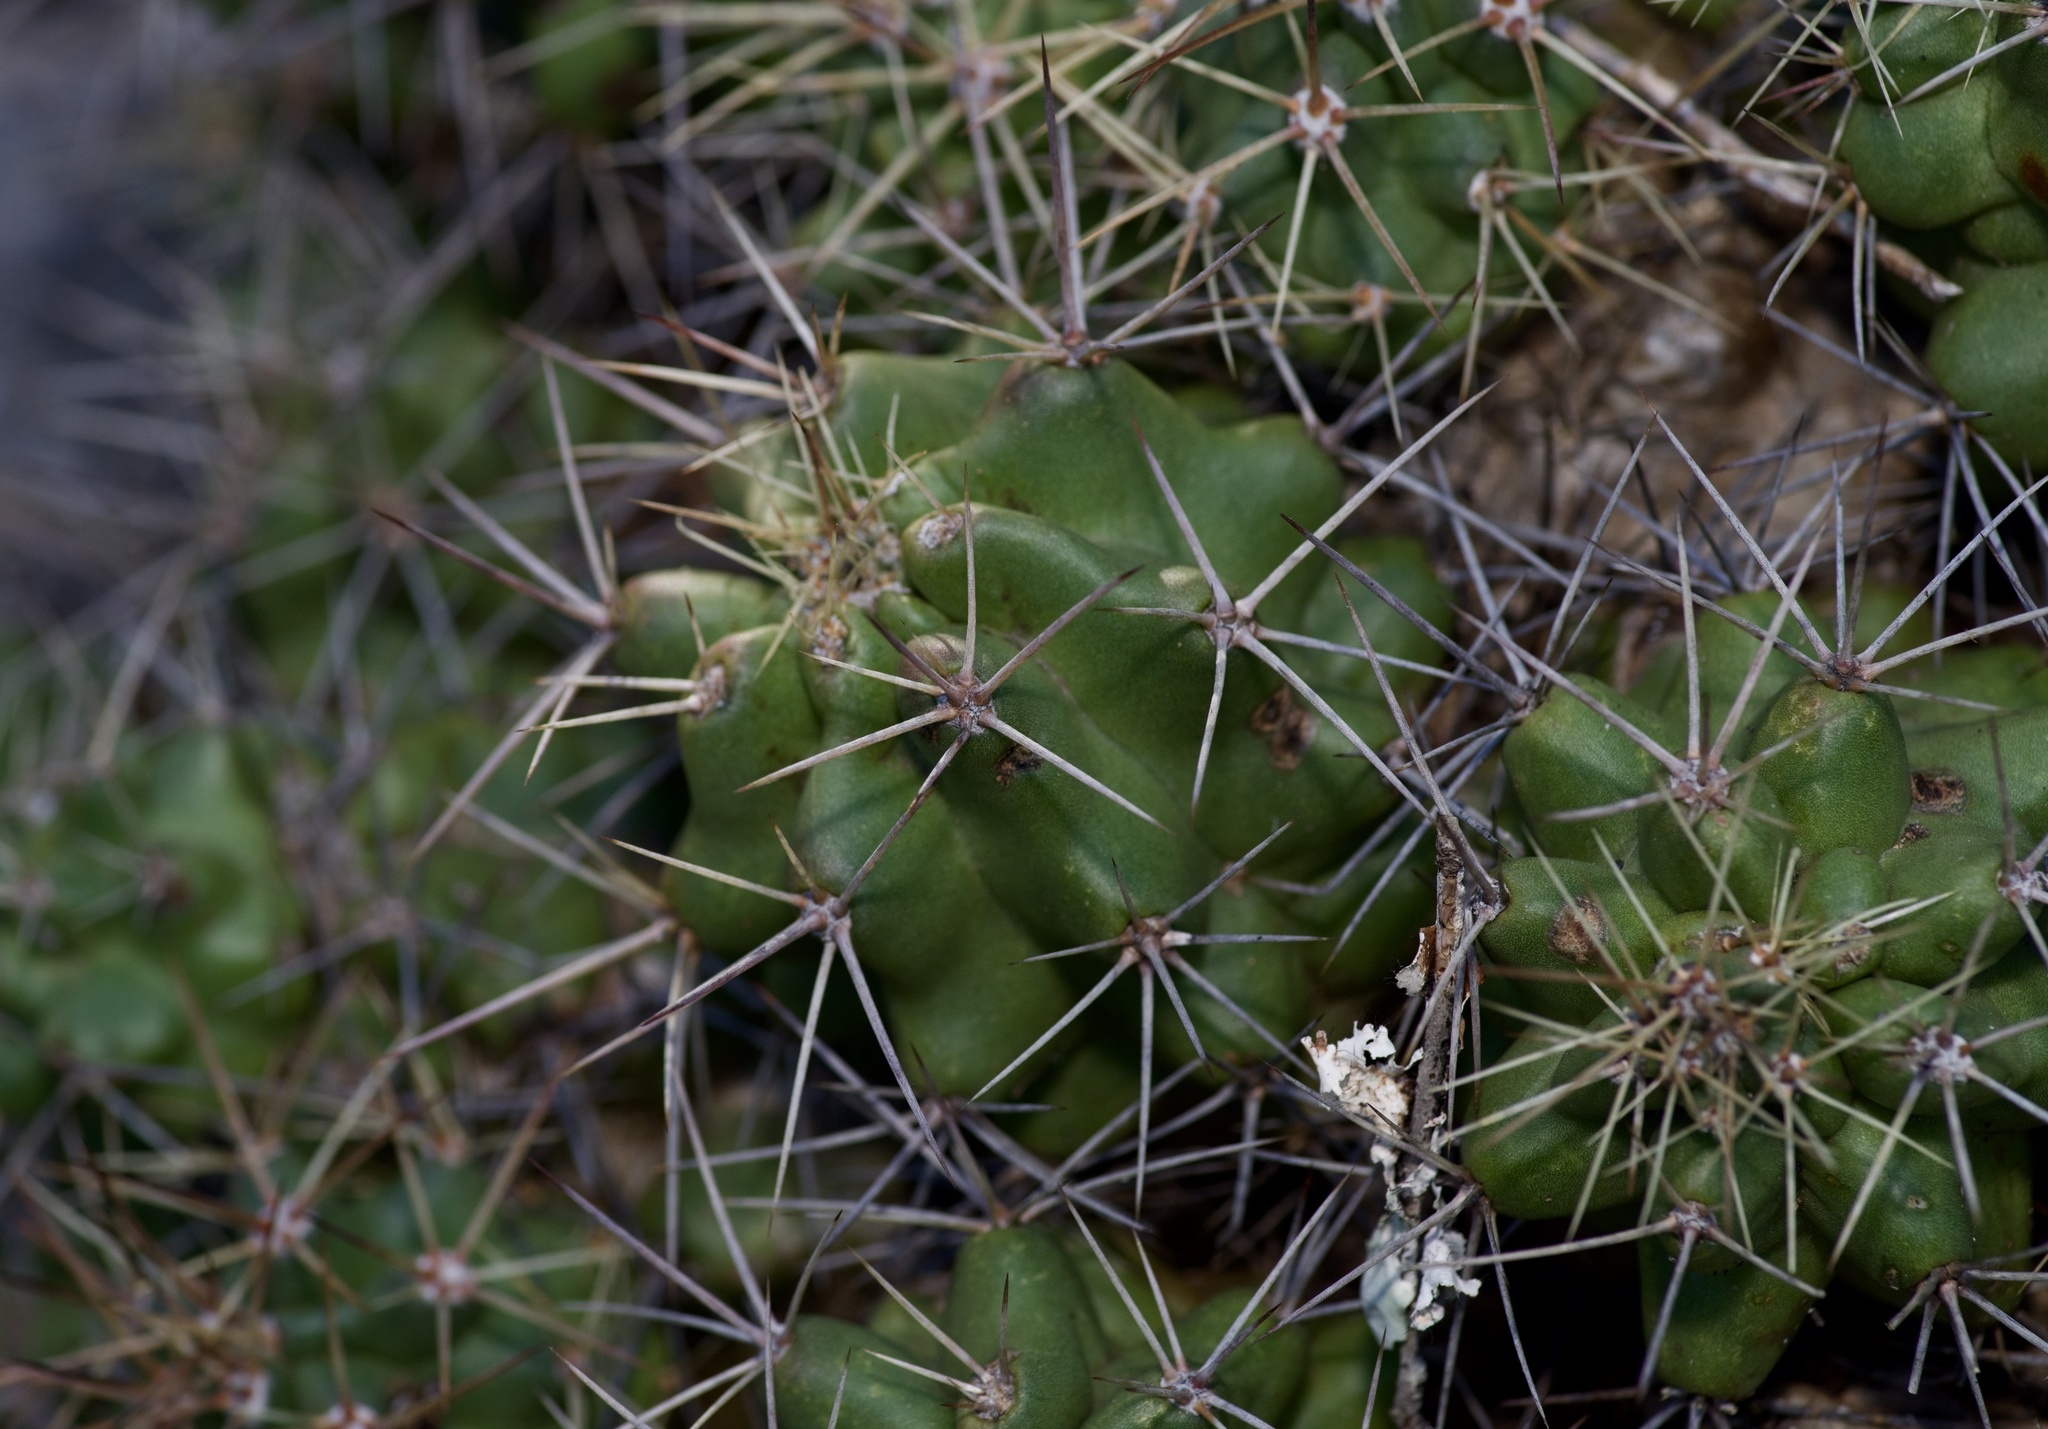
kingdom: Plantae
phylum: Tracheophyta
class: Magnoliopsida
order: Caryophyllales
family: Cactaceae
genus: Echinocereus
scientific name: Echinocereus coccineus
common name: Scarlet hedgehog cactus
